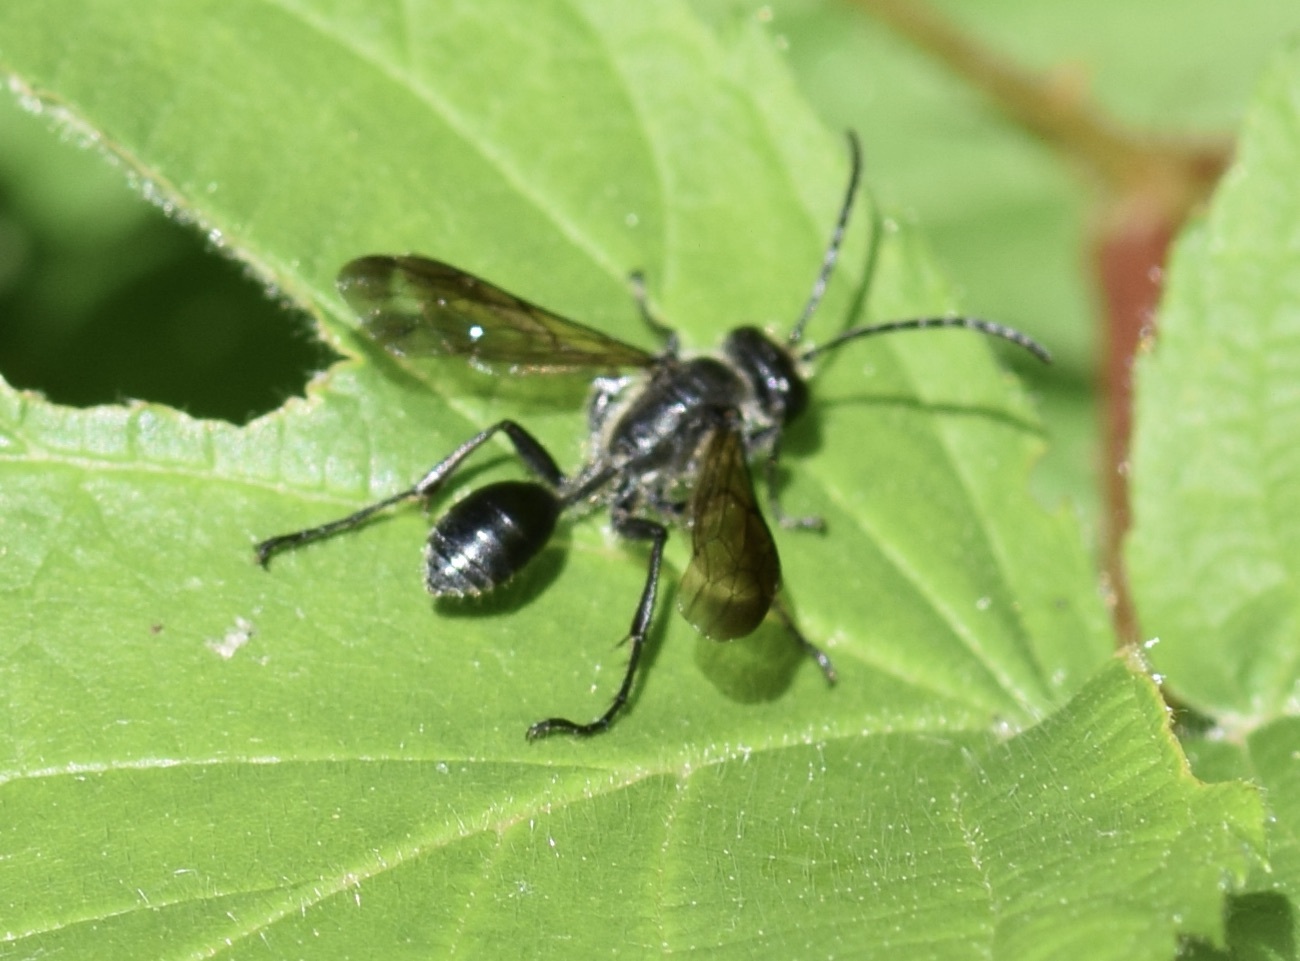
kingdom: Animalia
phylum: Arthropoda
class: Insecta
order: Hymenoptera
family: Sphecidae
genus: Isodontia
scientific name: Isodontia mexicana
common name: Mud dauber
